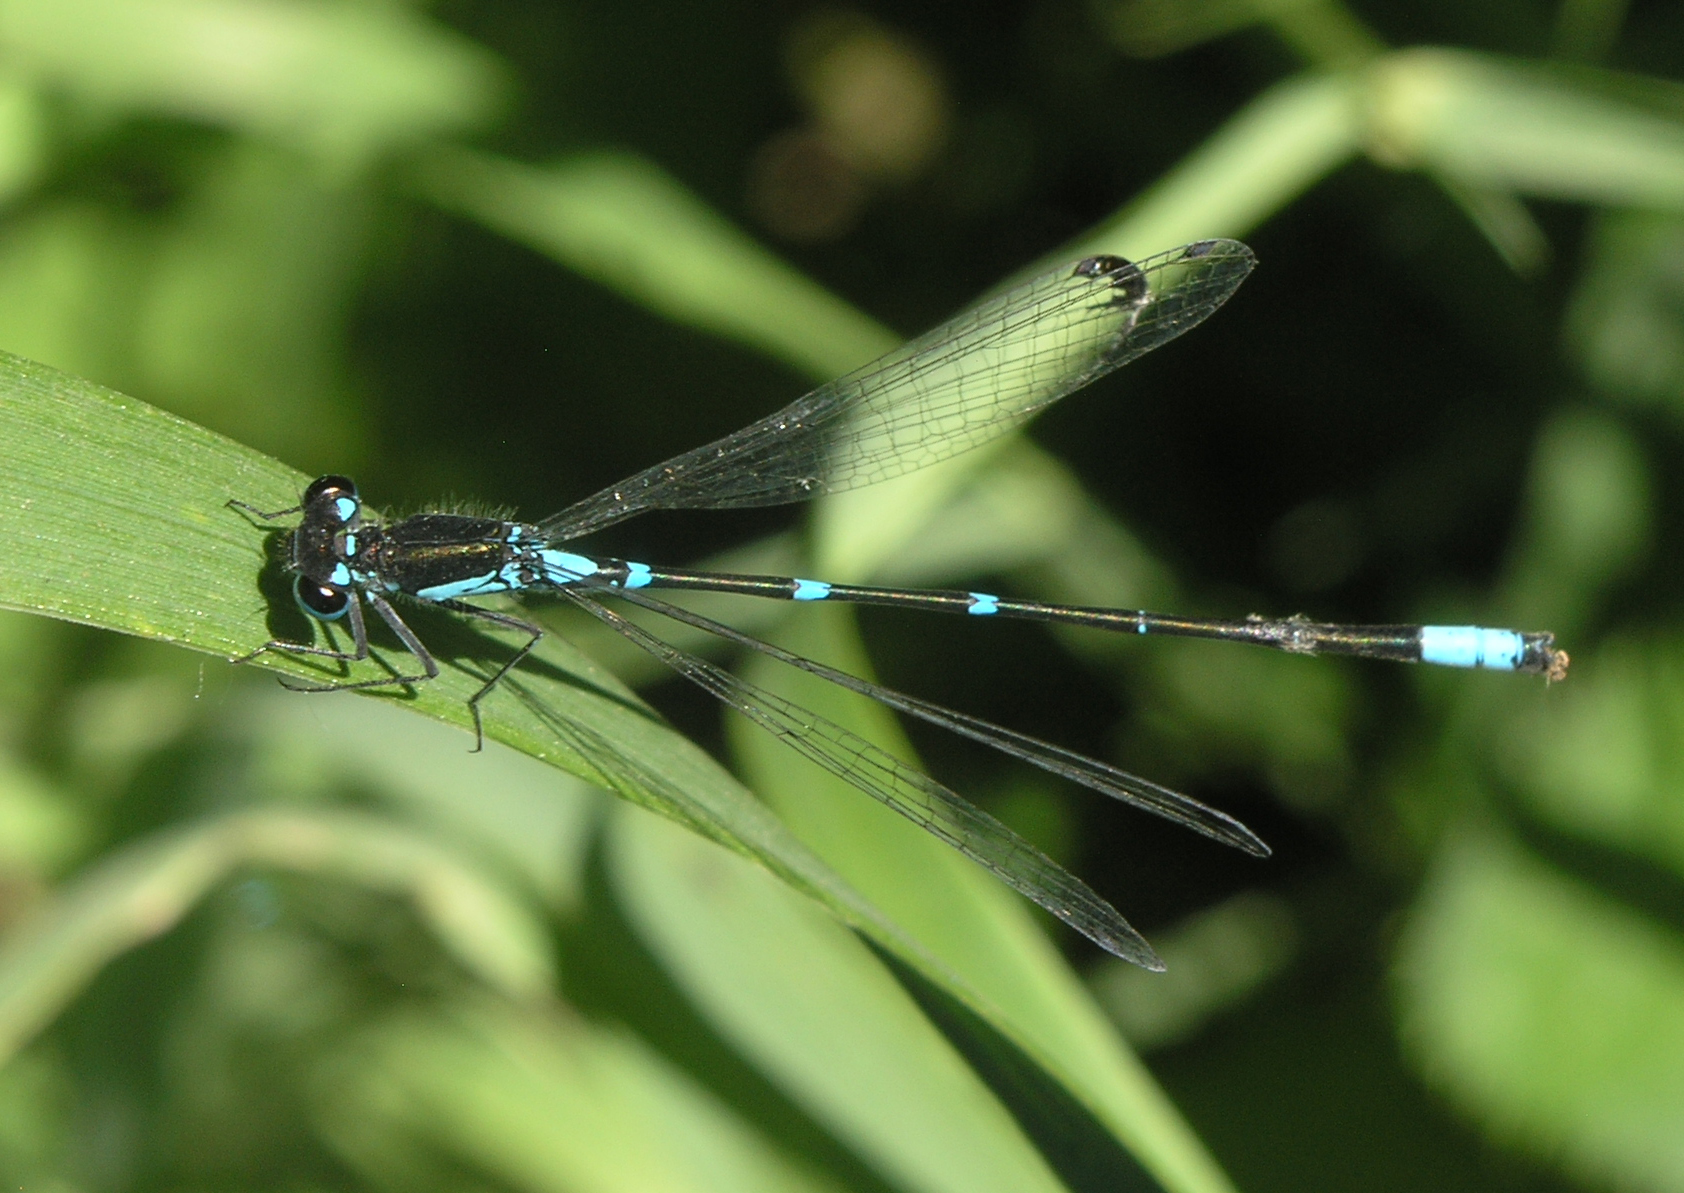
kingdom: Animalia
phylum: Arthropoda
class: Insecta
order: Odonata
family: Coenagrionidae
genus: Coenagrion
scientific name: Coenagrion pulchellum
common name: Variable bluet
